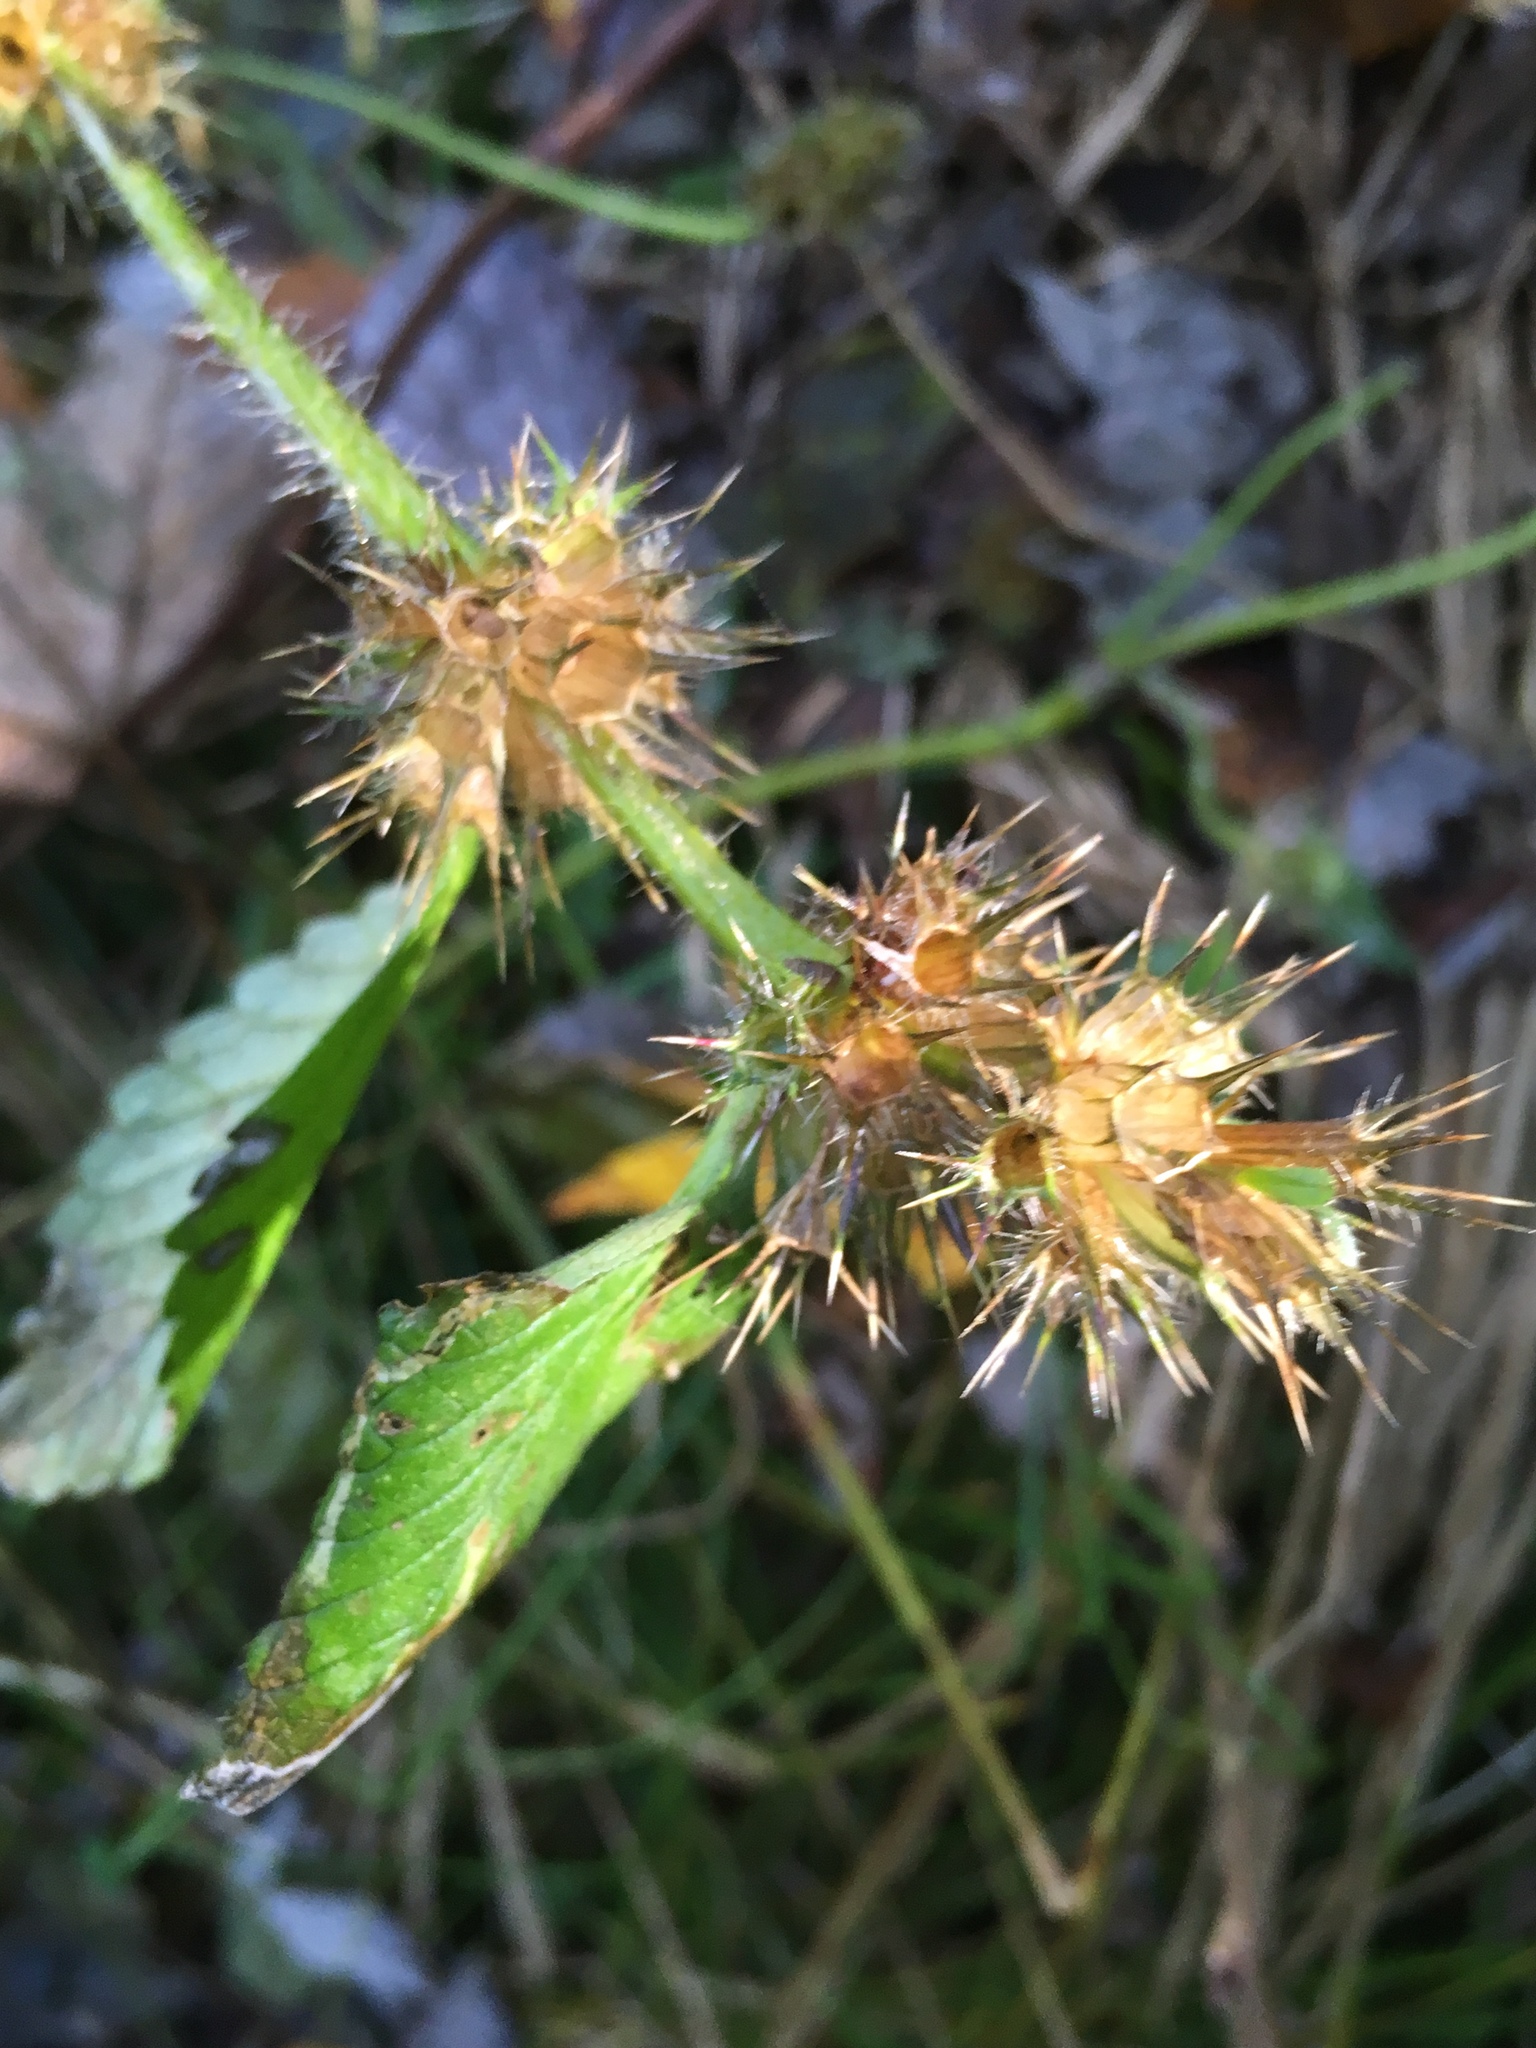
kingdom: Plantae
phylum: Tracheophyta
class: Magnoliopsida
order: Lamiales
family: Lamiaceae
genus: Galeopsis
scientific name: Galeopsis tetrahit
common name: Common hemp-nettle
